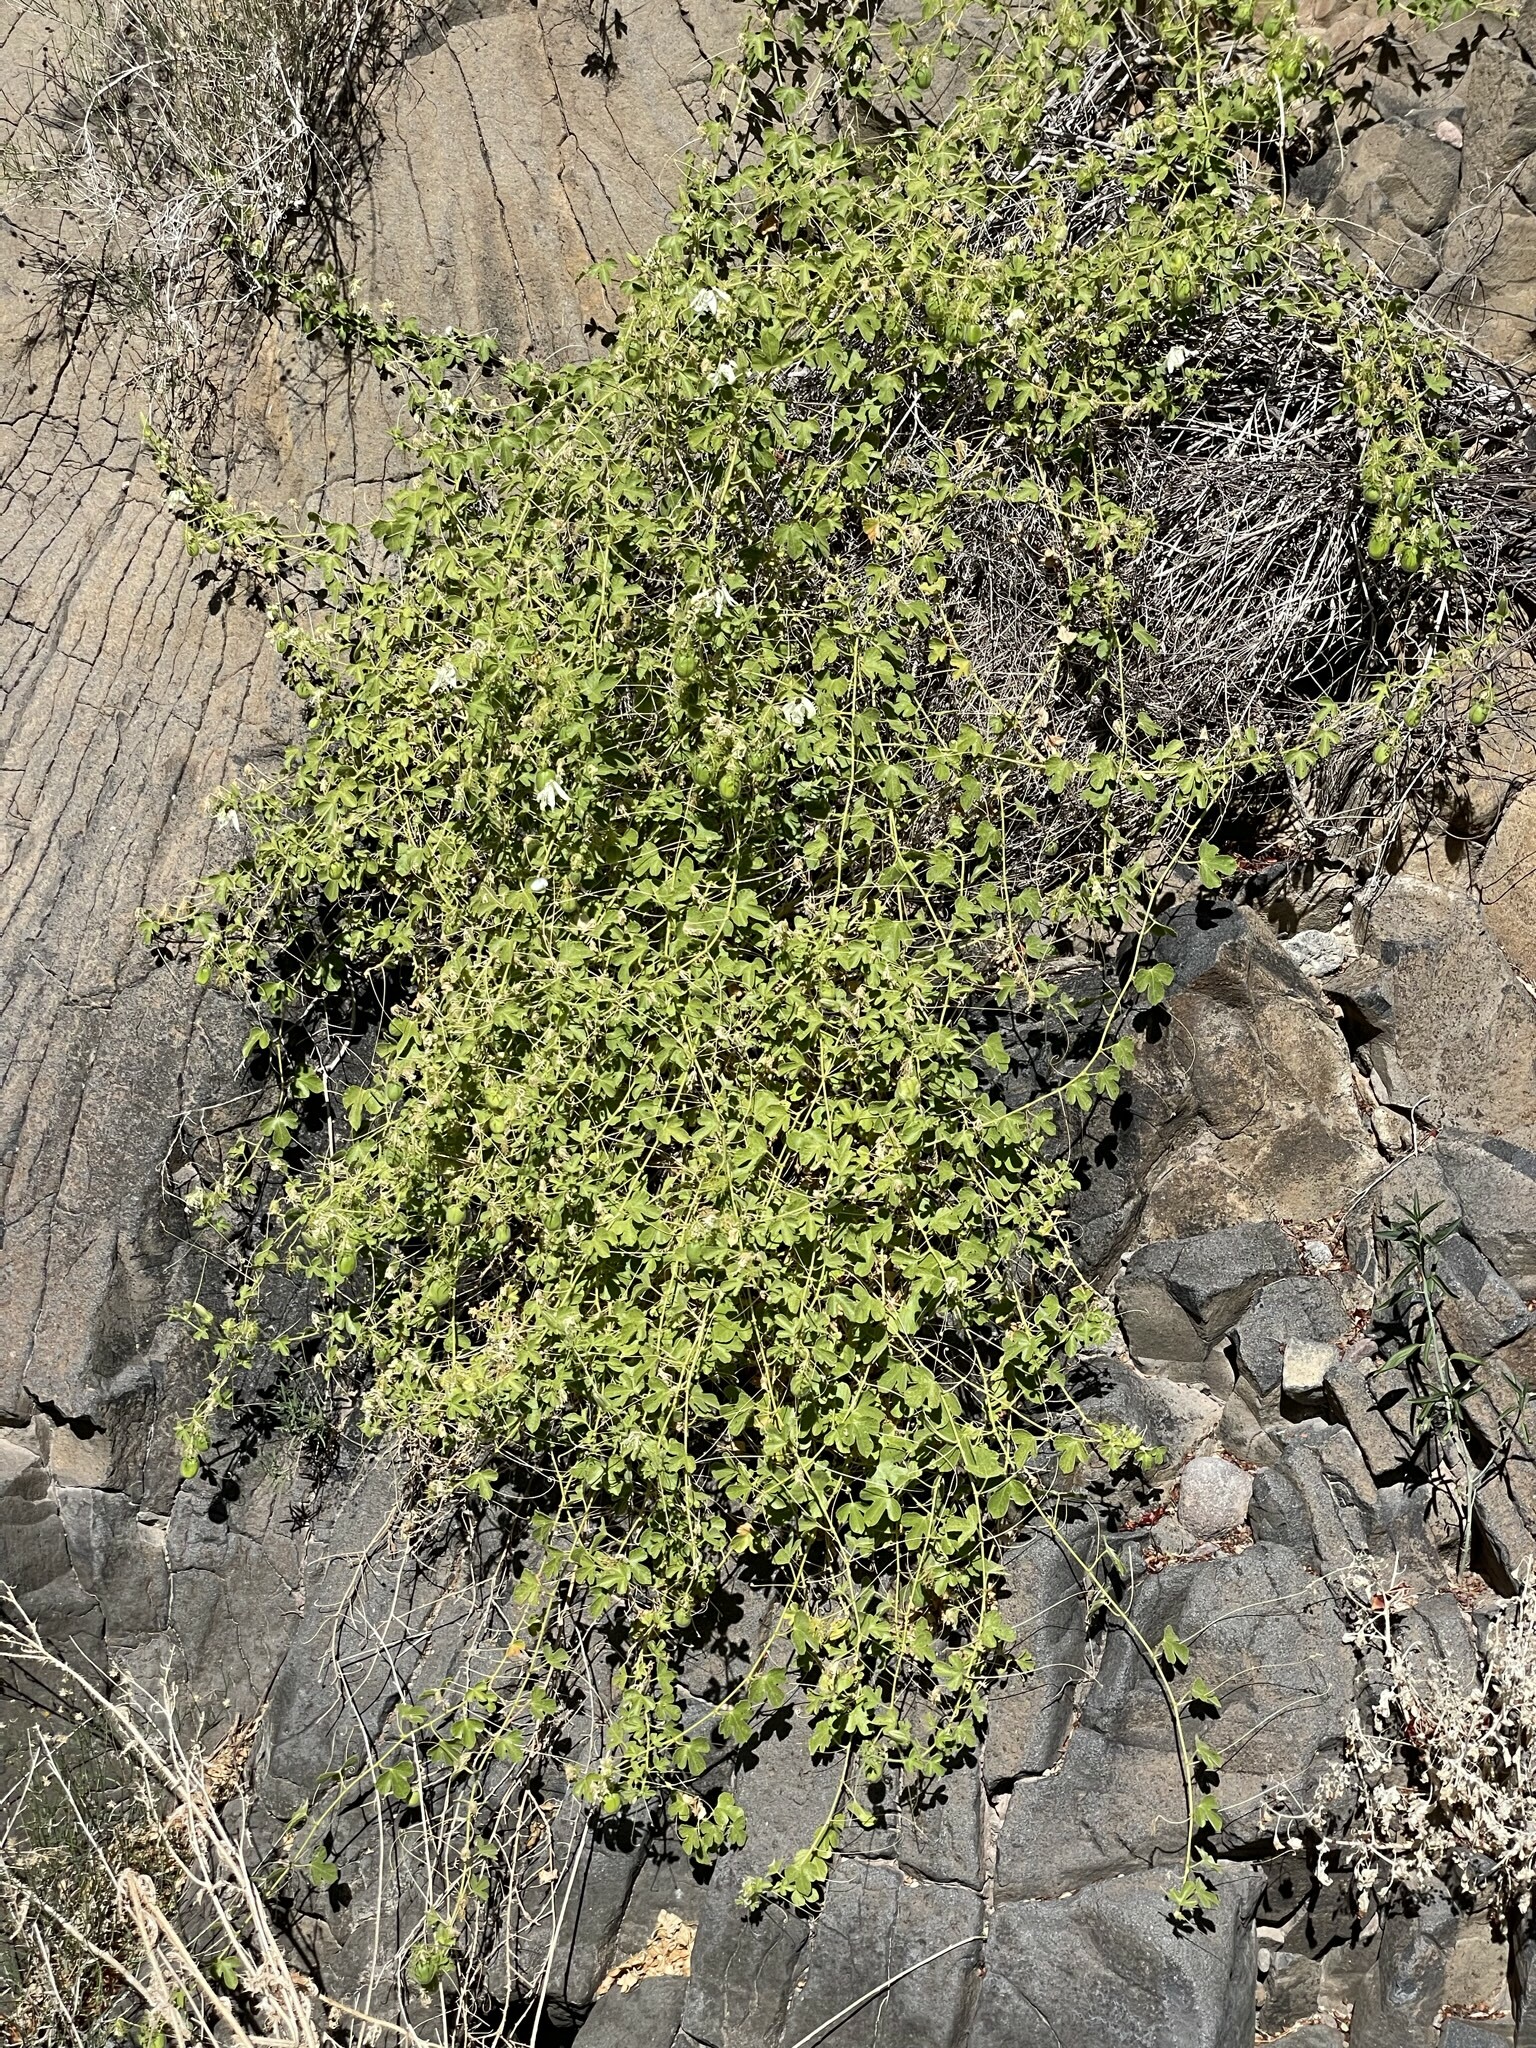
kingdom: Plantae
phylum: Tracheophyta
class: Magnoliopsida
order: Malpighiales
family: Passifloraceae
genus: Passiflora
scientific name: Passiflora palmeri
